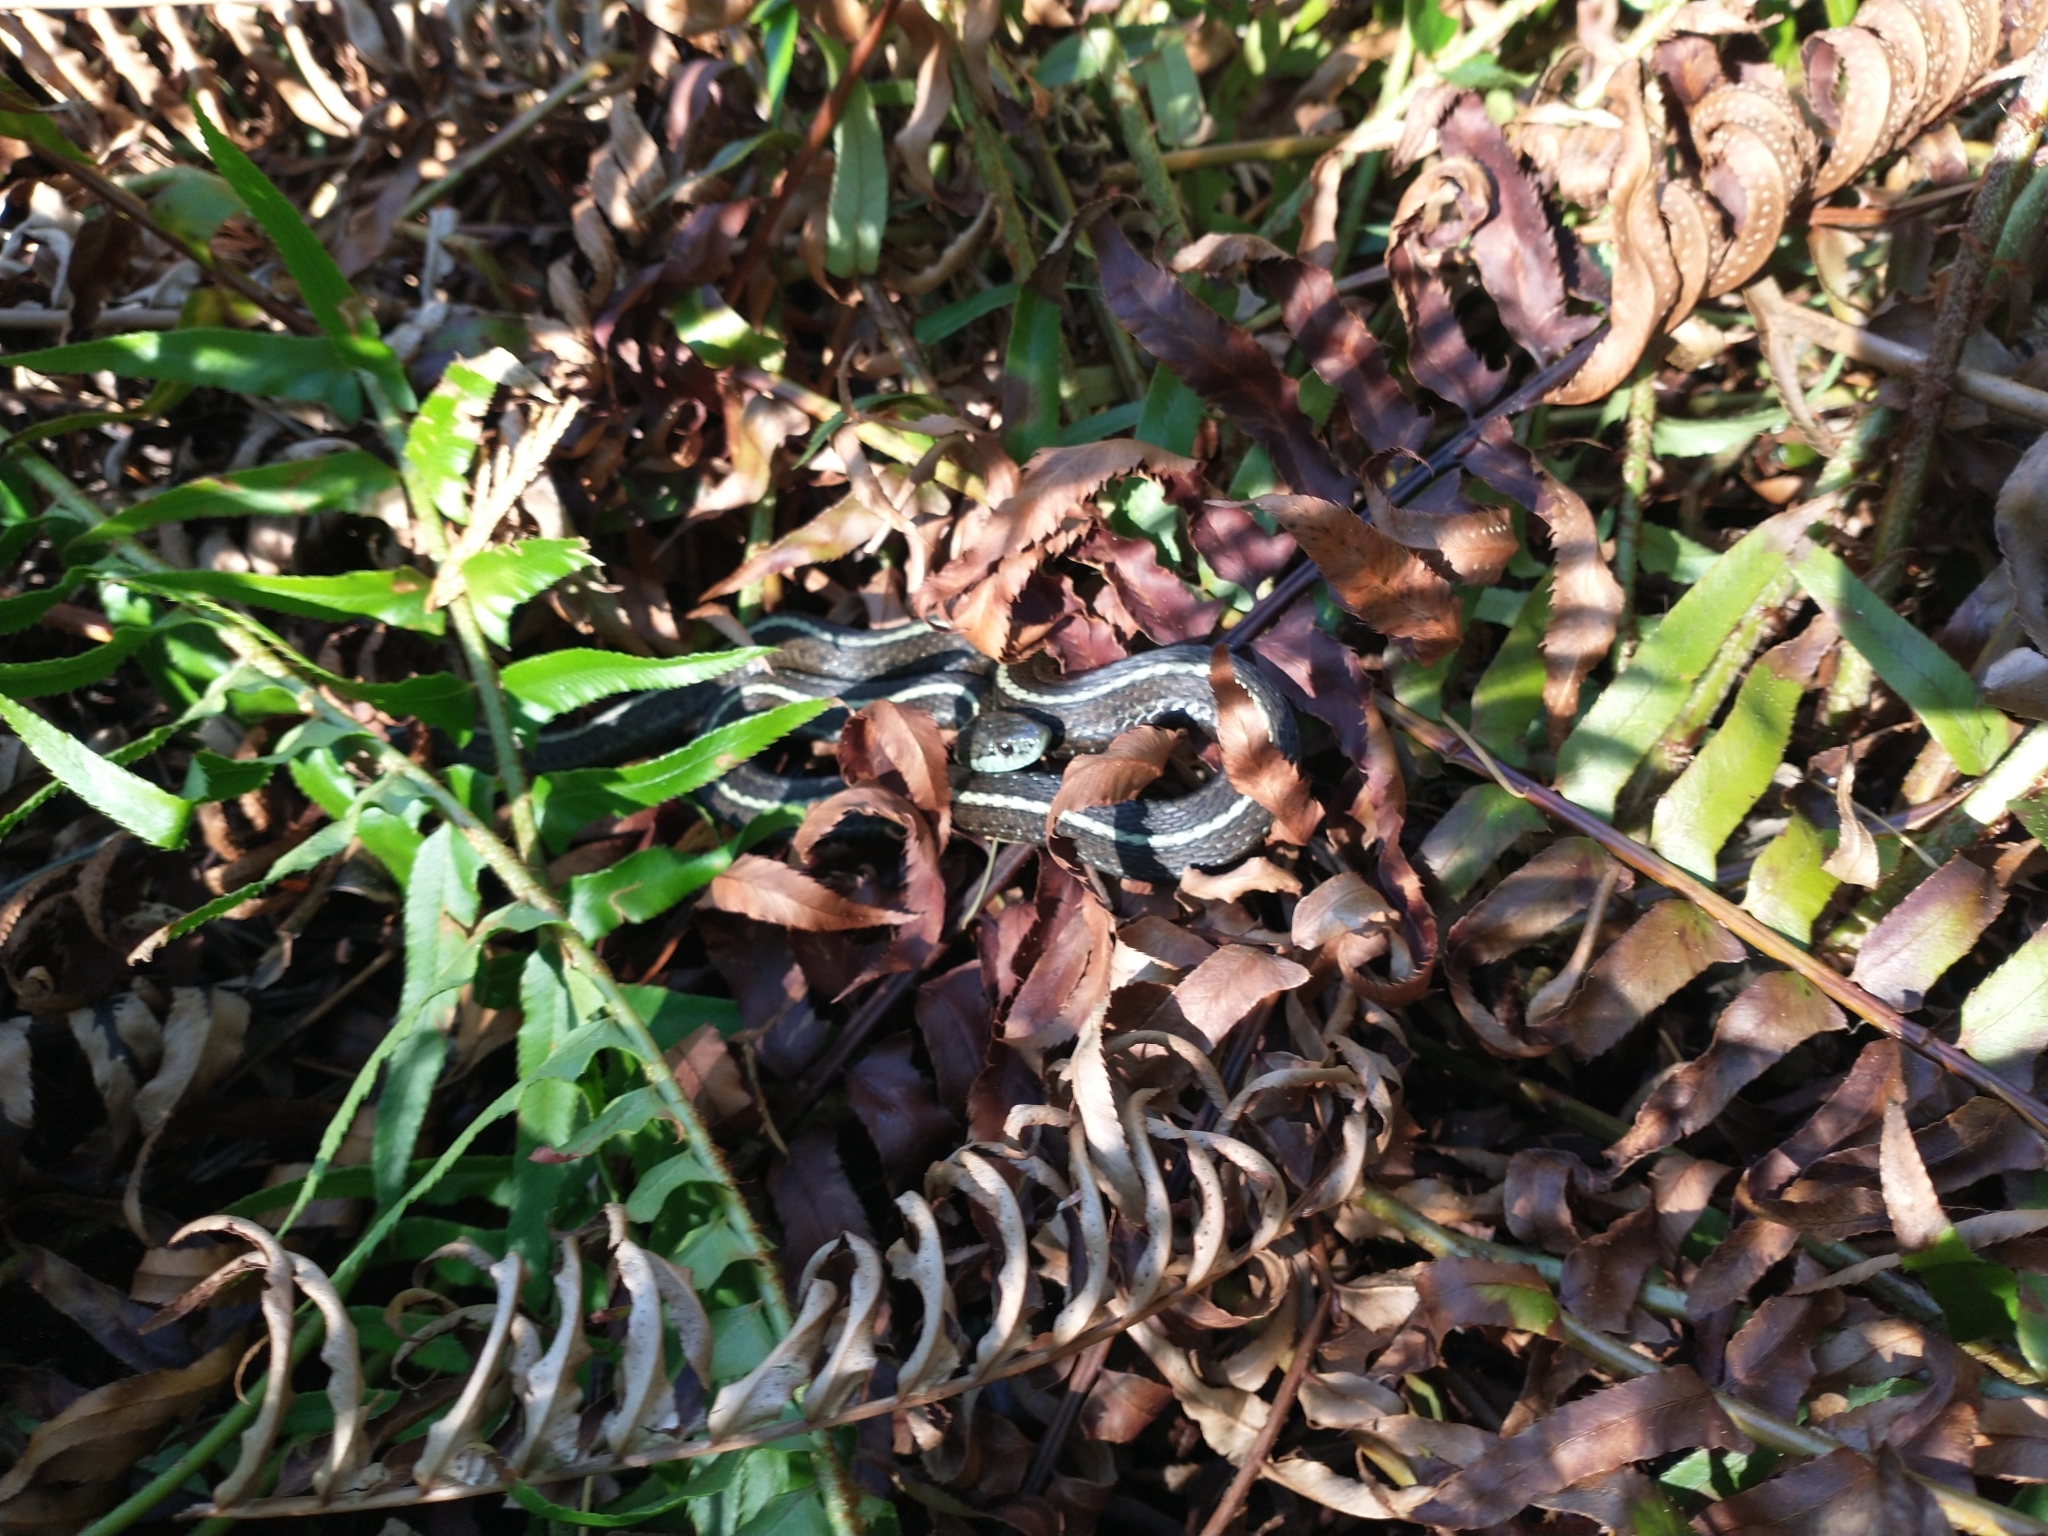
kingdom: Animalia
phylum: Chordata
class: Squamata
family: Colubridae
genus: Thamnophis
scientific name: Thamnophis ordinoides
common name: Northwestern garter snake
